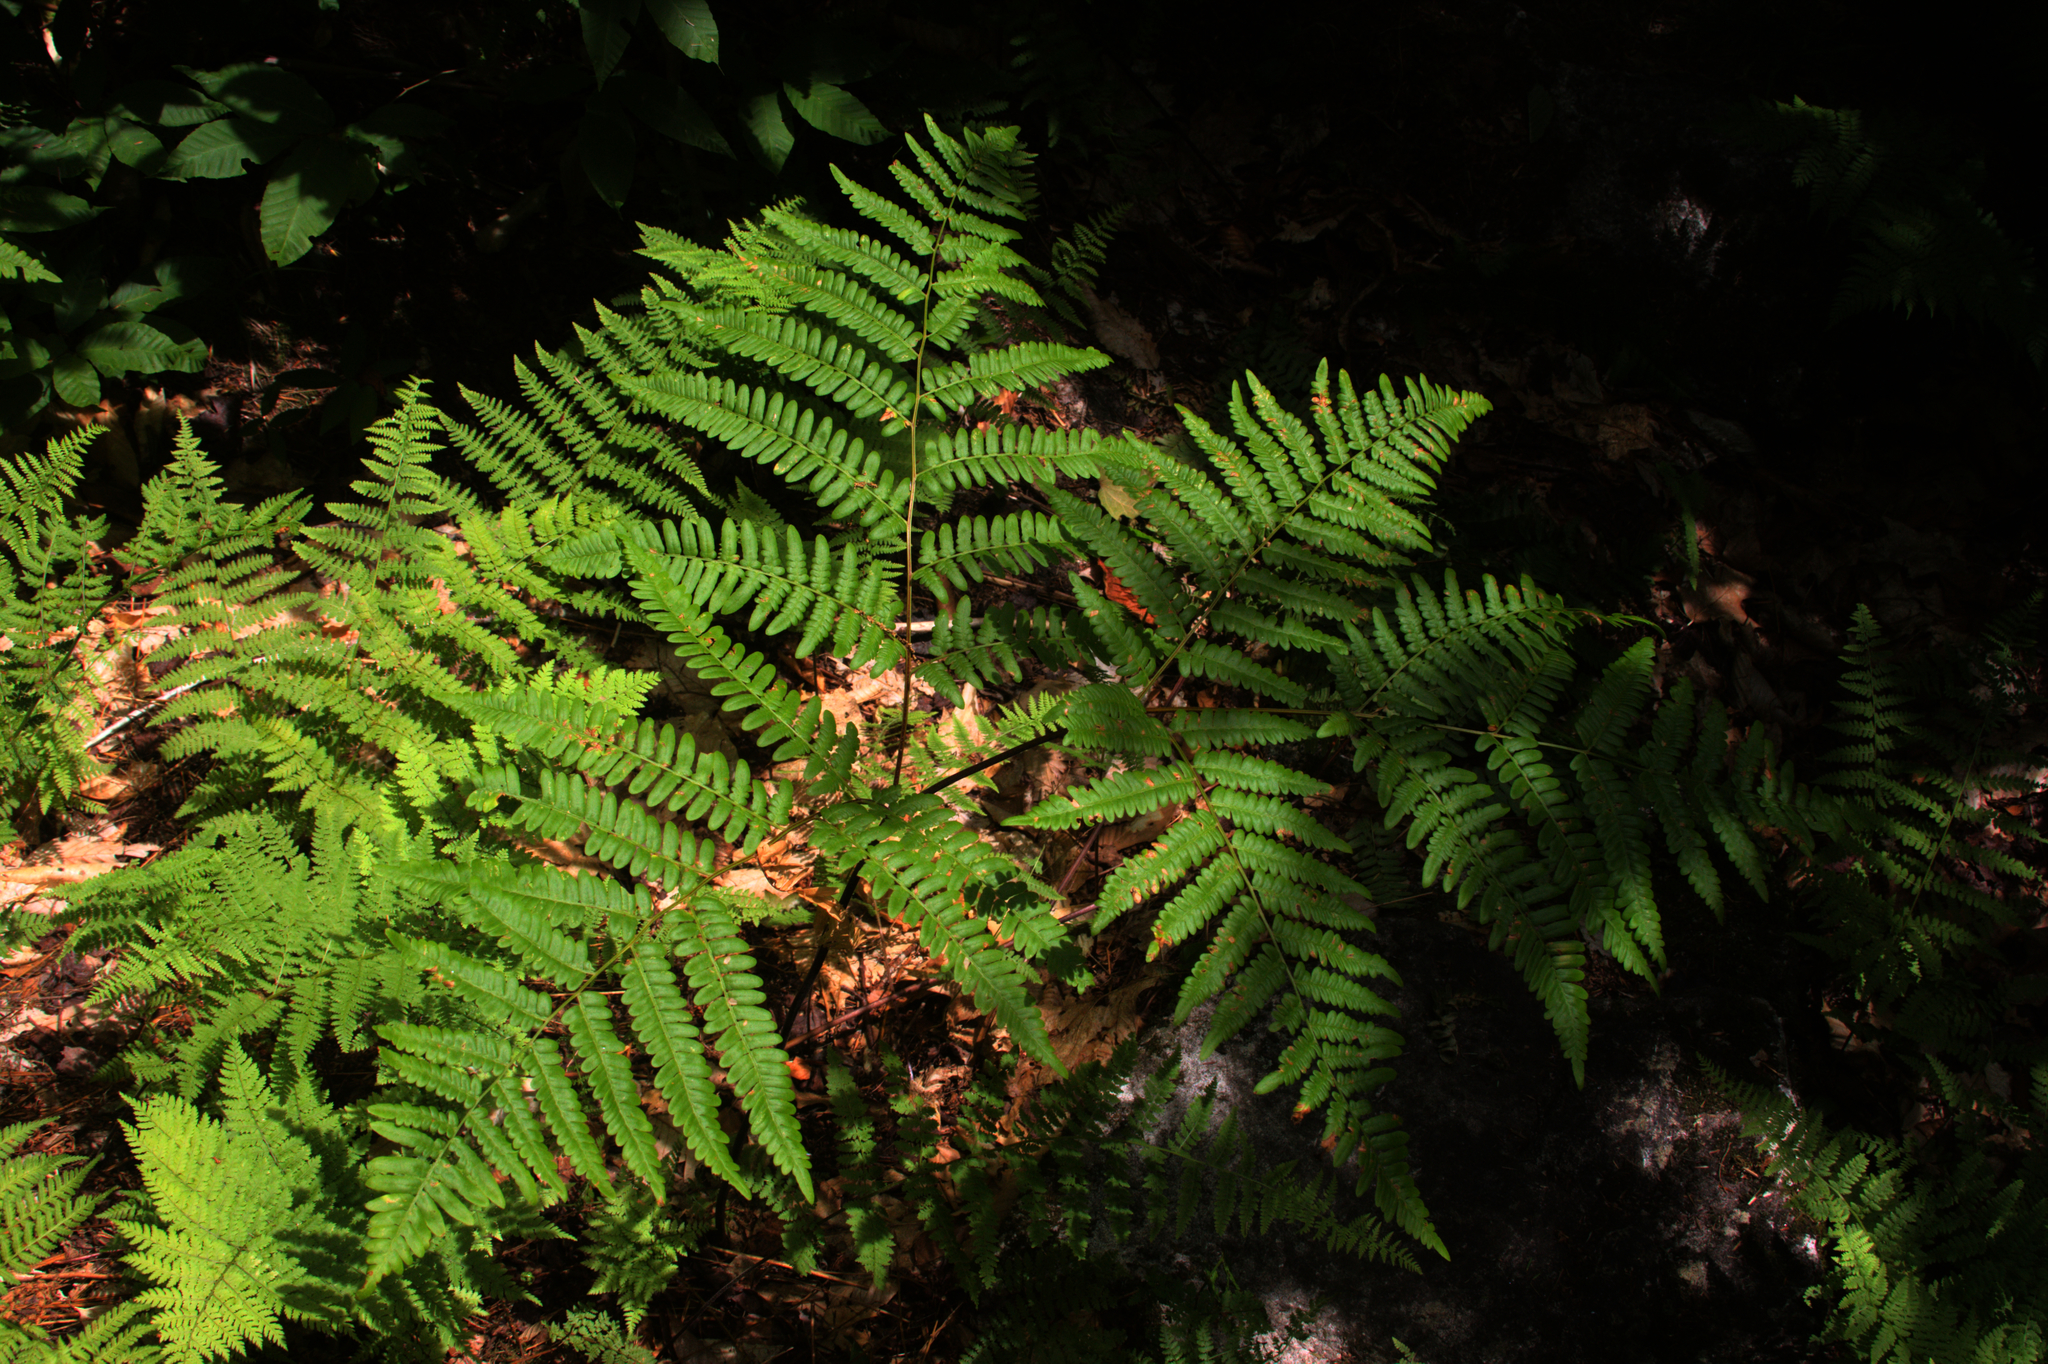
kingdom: Plantae
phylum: Tracheophyta
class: Polypodiopsida
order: Polypodiales
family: Dennstaedtiaceae
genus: Pteridium
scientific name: Pteridium aquilinum
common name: Bracken
